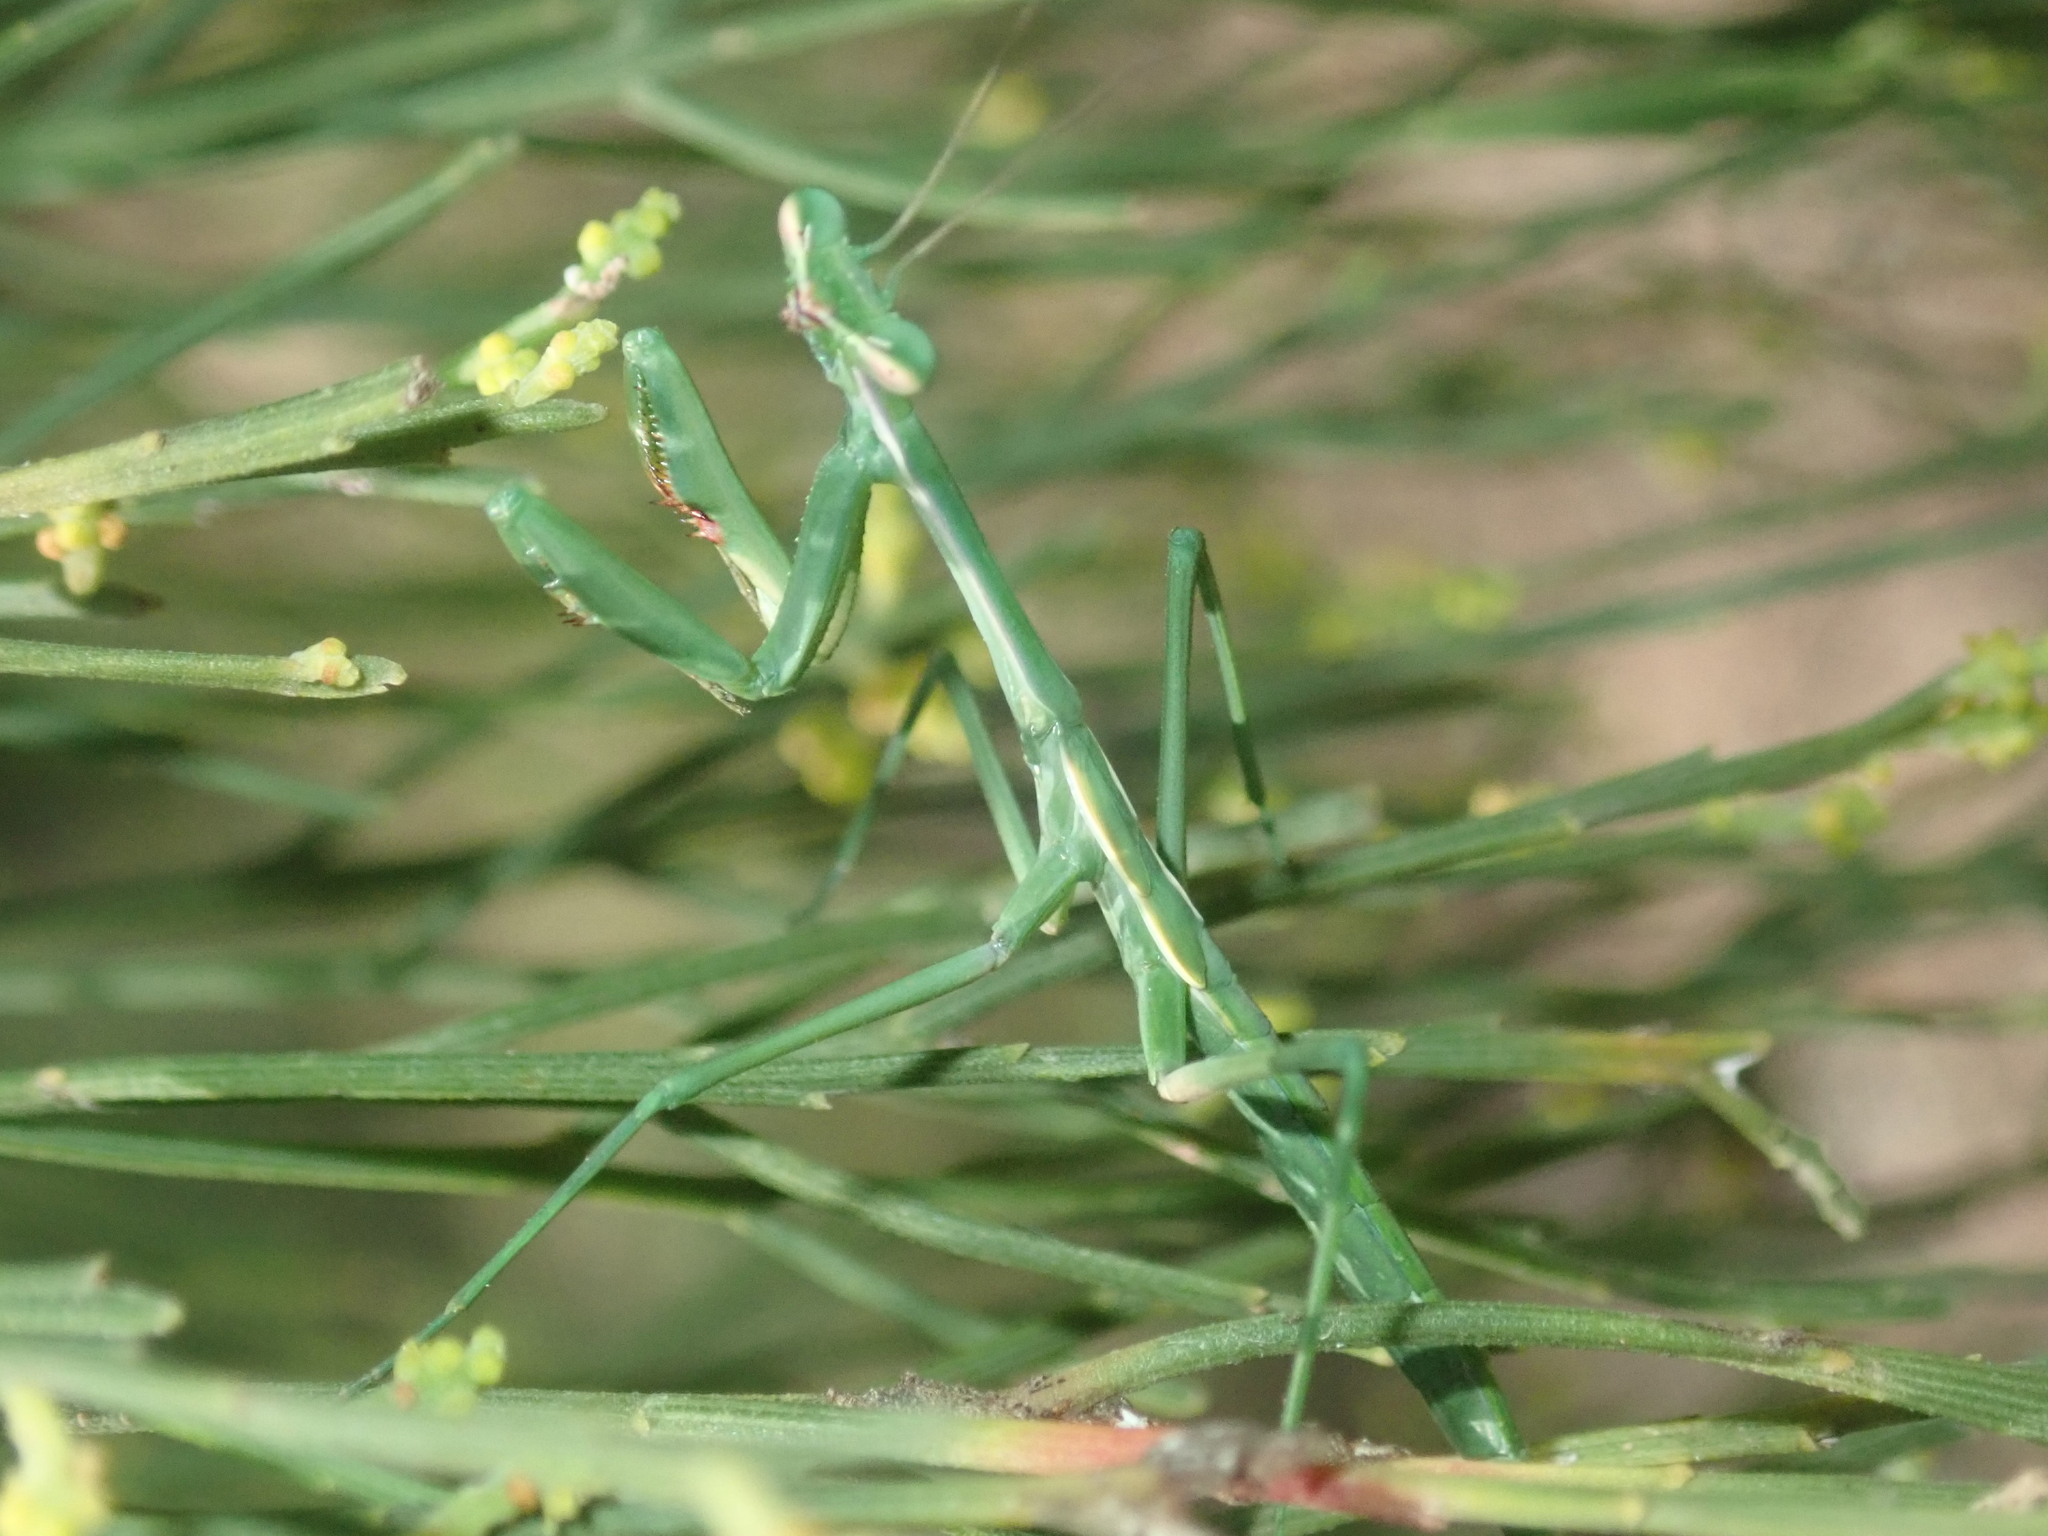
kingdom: Animalia
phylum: Arthropoda
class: Insecta
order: Mantodea
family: Mantidae
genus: Pseudomantis
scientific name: Pseudomantis albofimbriata
